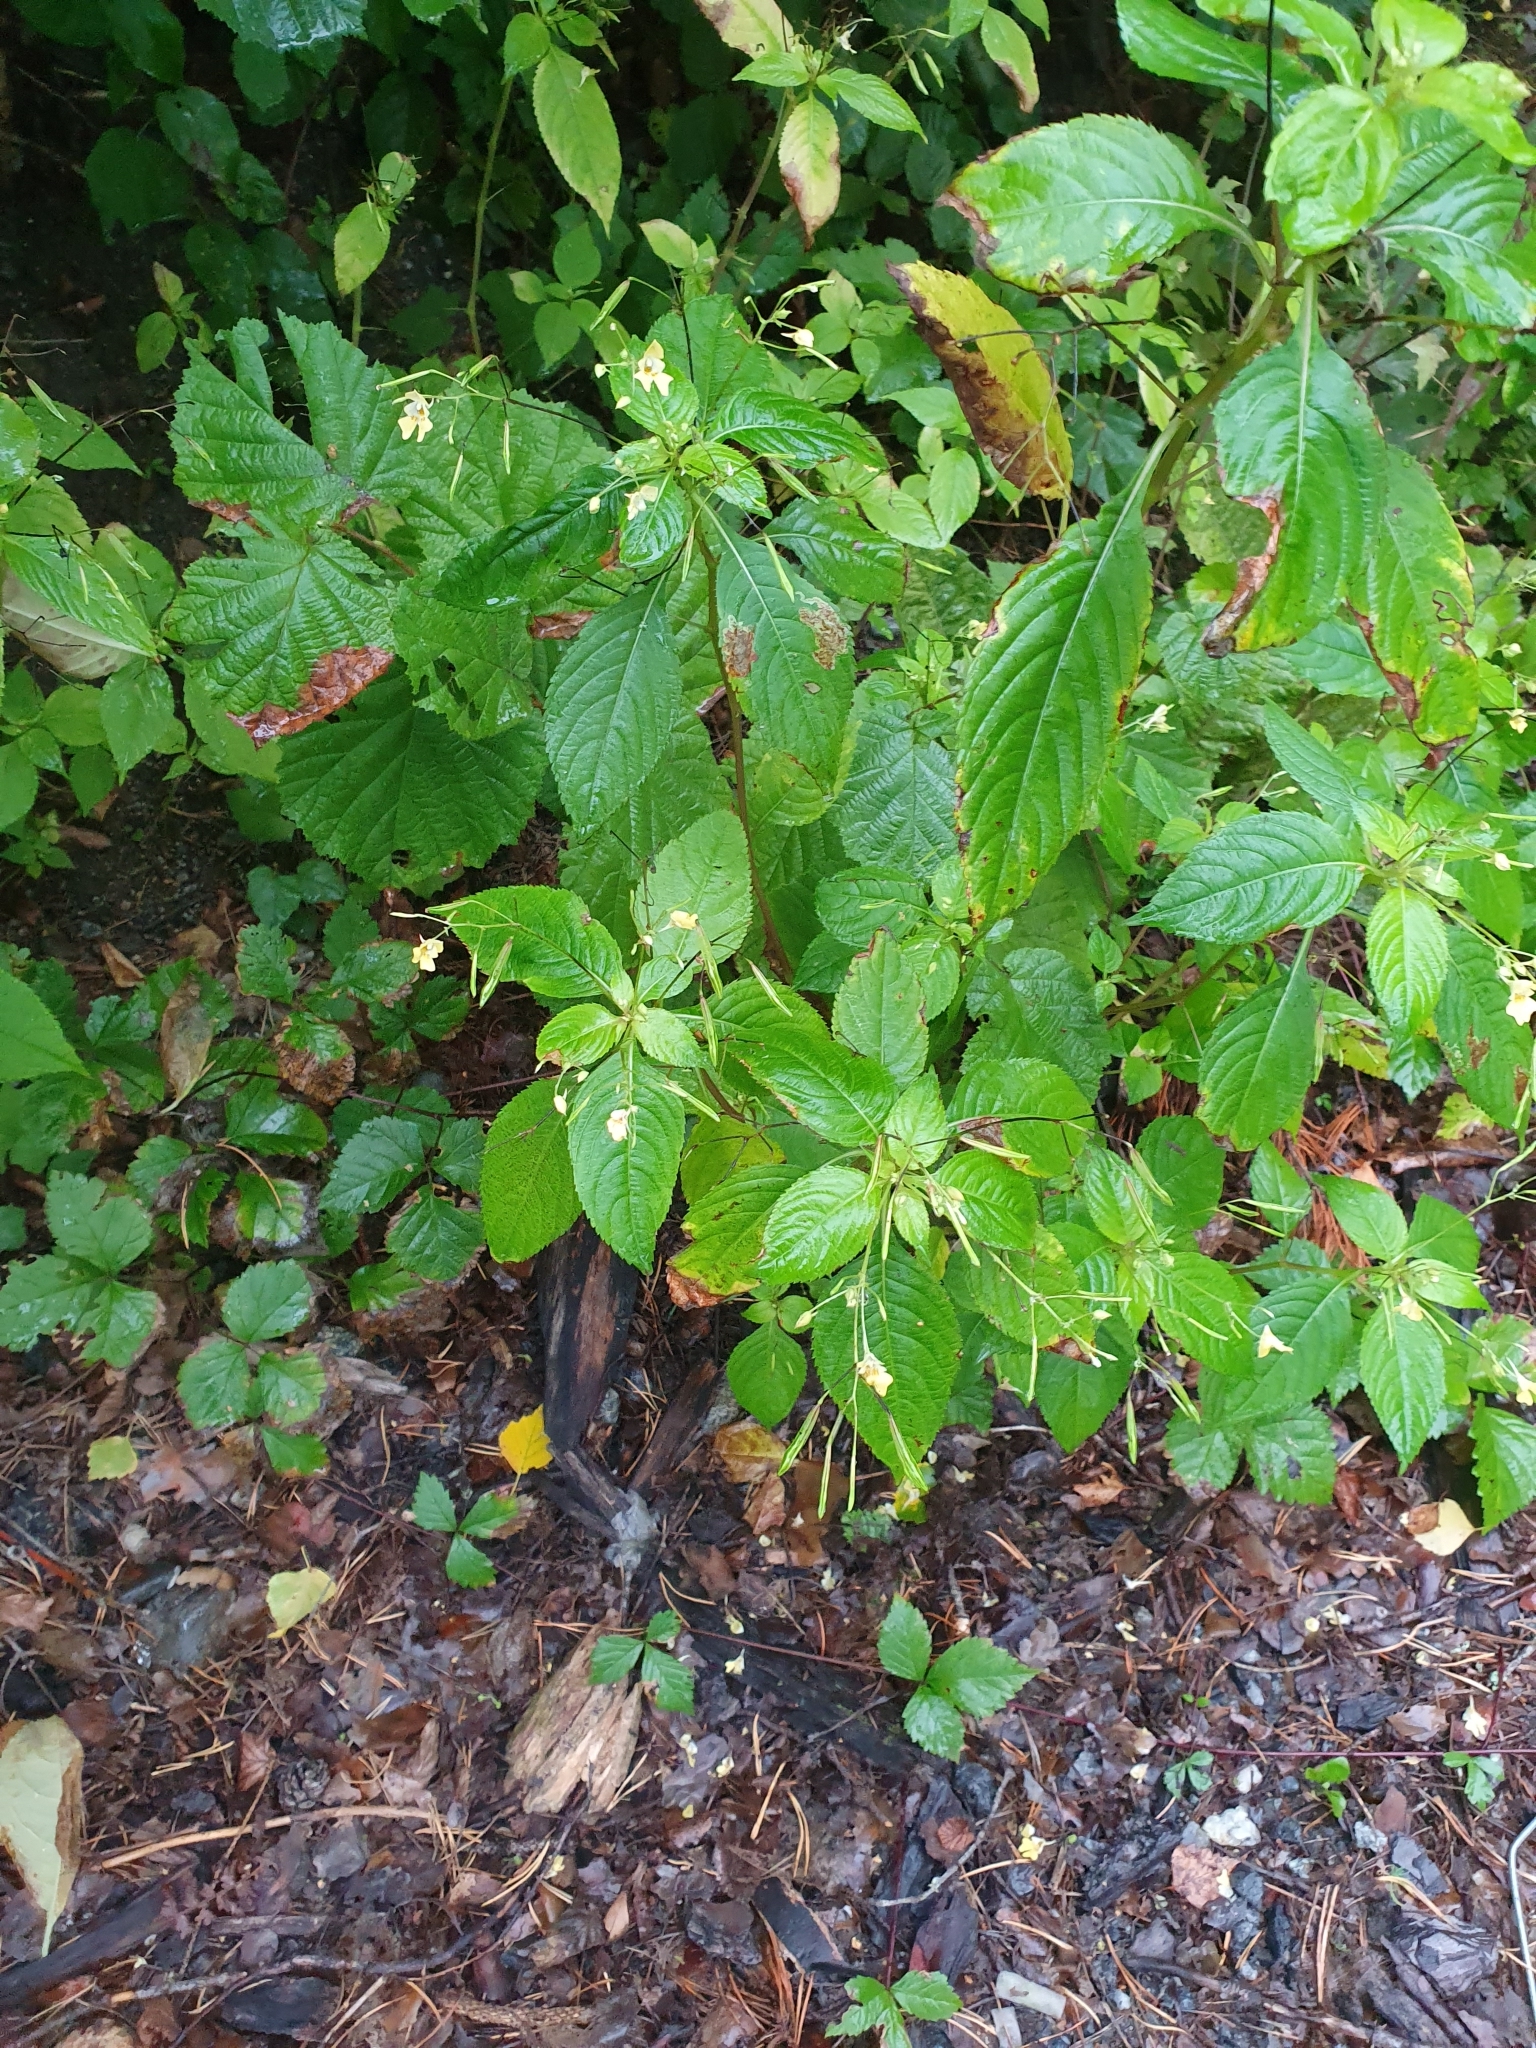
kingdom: Plantae
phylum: Tracheophyta
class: Magnoliopsida
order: Ericales
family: Balsaminaceae
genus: Impatiens
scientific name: Impatiens parviflora
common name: Small balsam
